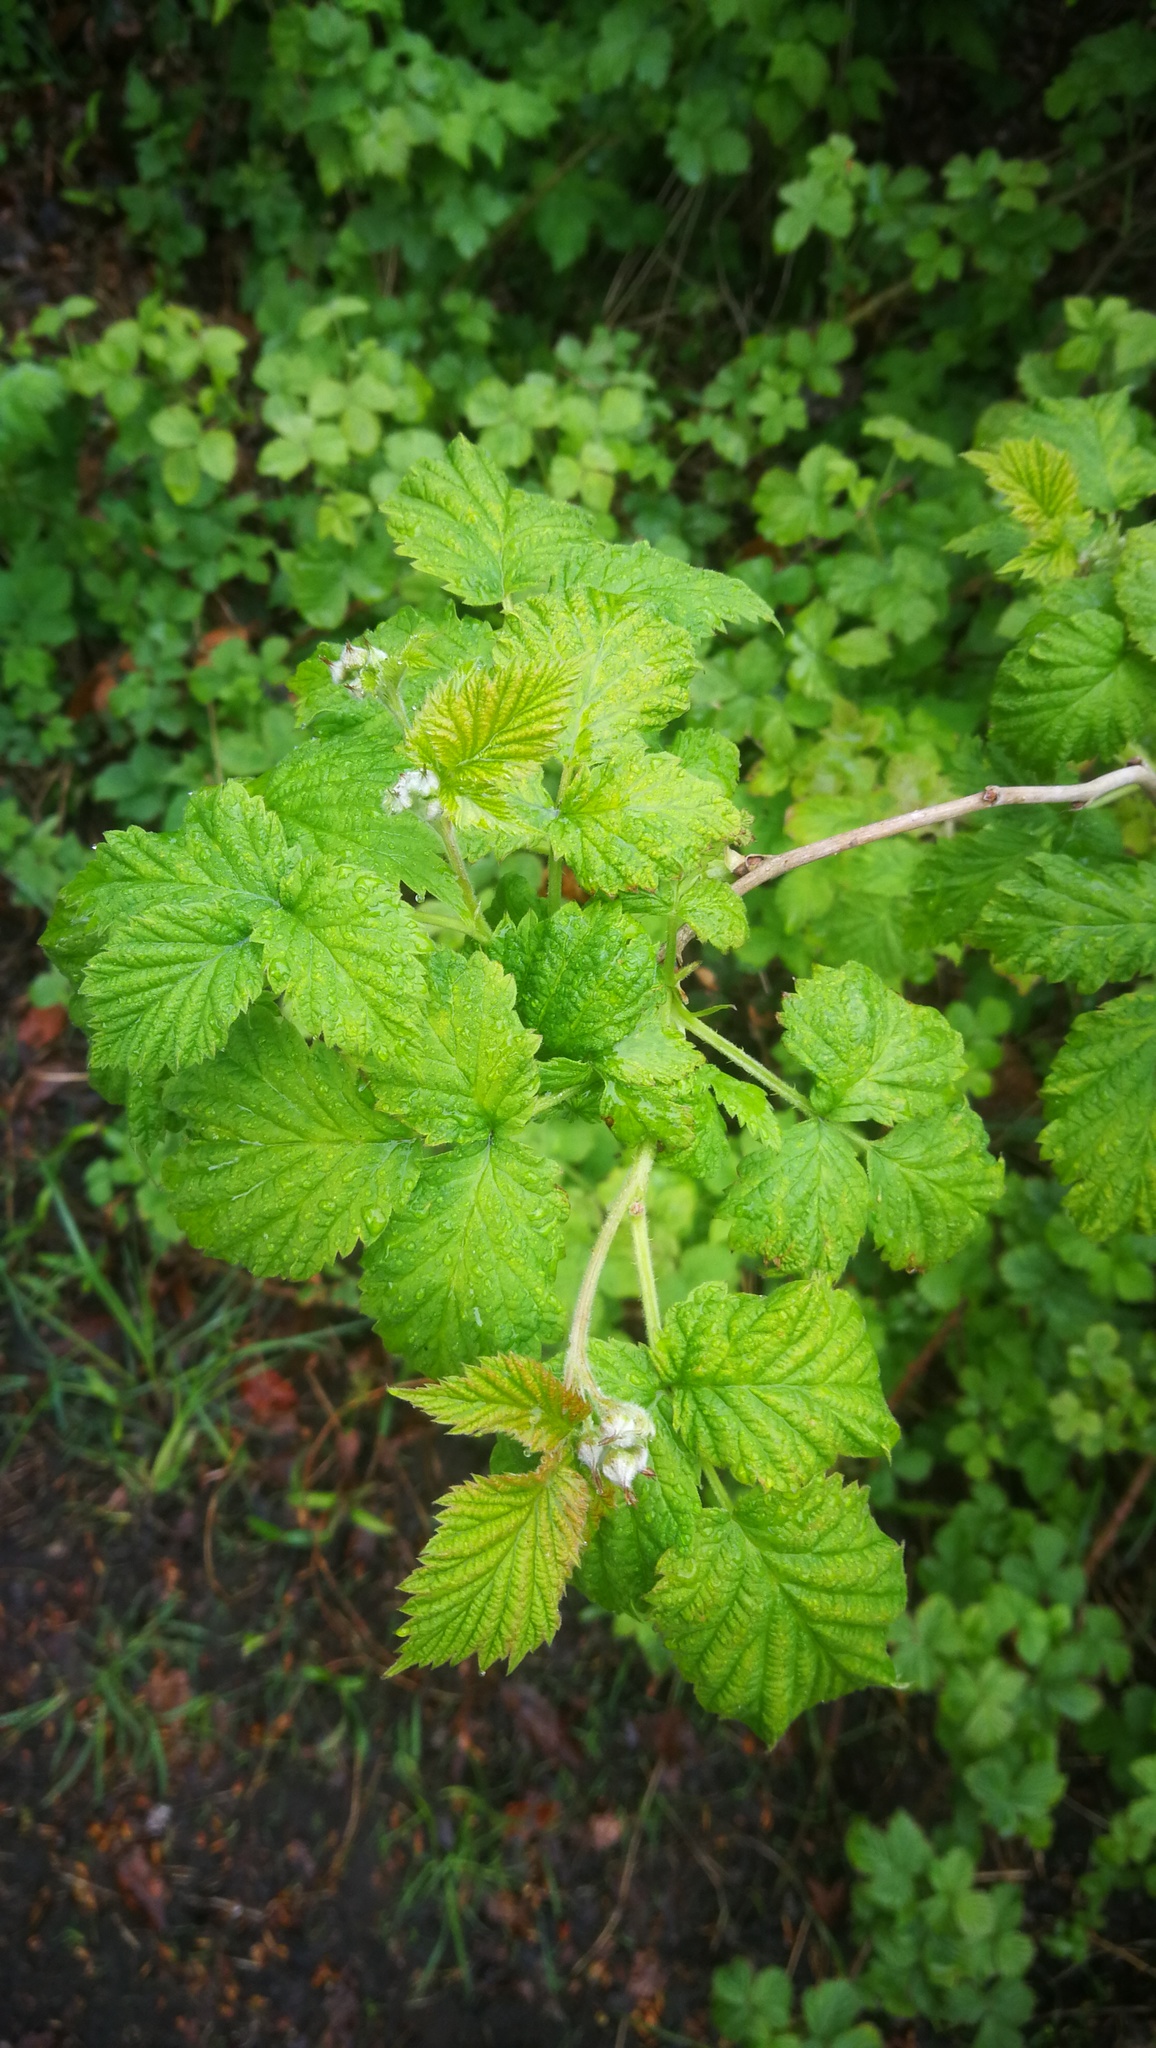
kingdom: Plantae
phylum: Tracheophyta
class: Magnoliopsida
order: Rosales
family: Rosaceae
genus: Rubus
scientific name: Rubus idaeus
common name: Raspberry
